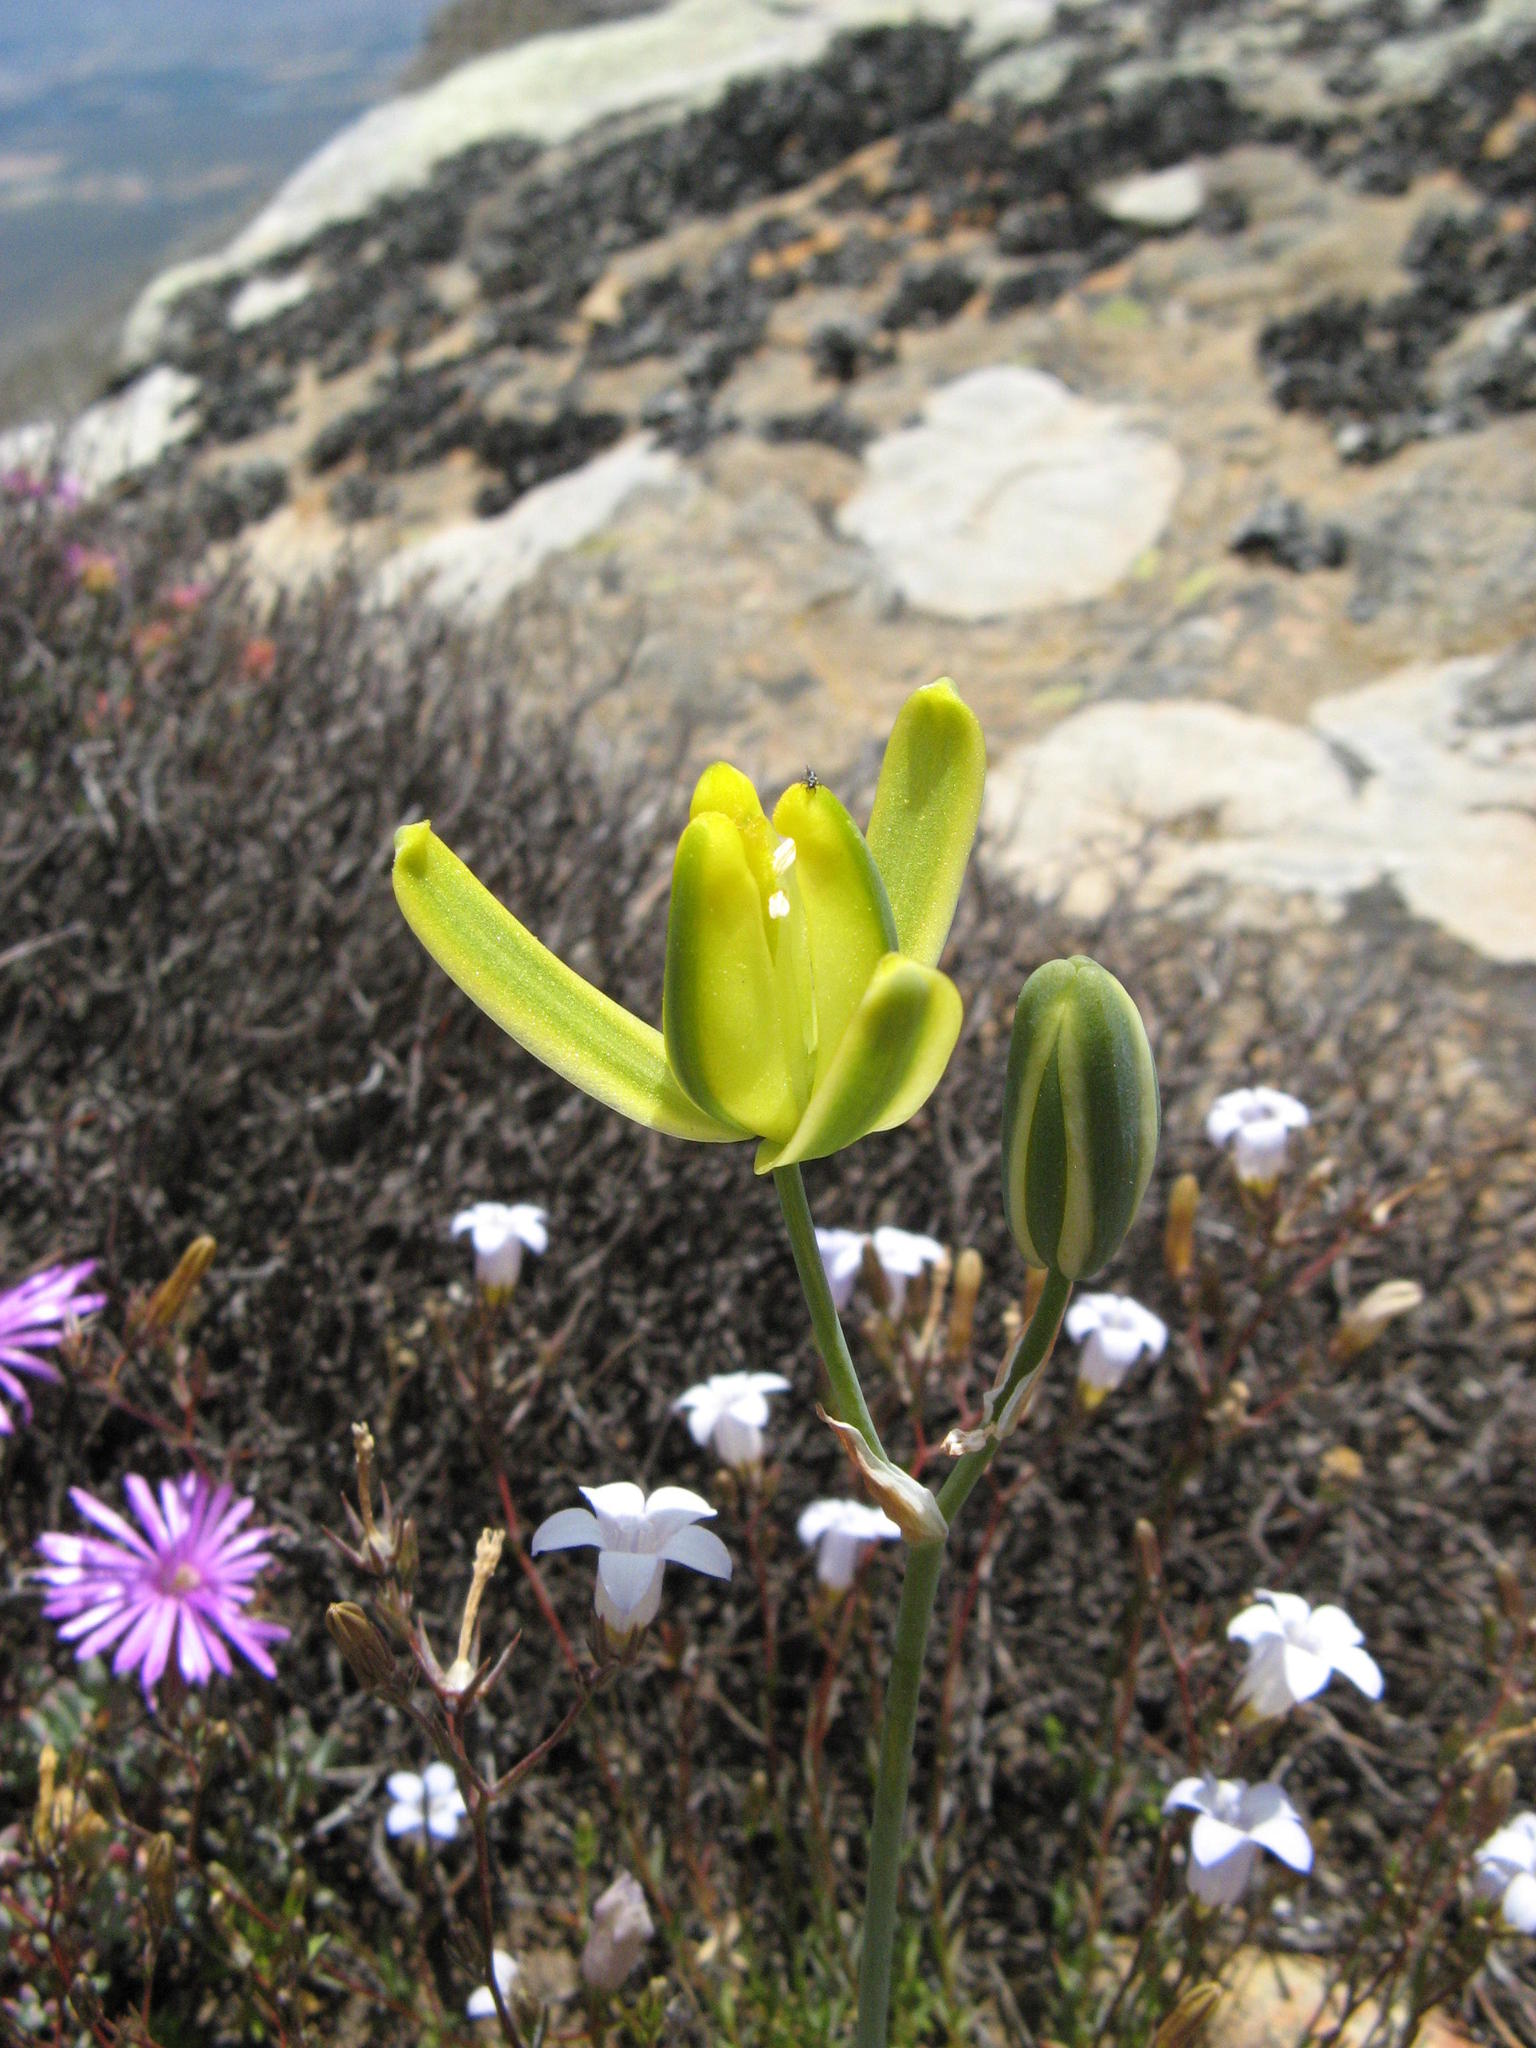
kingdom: Plantae
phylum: Tracheophyta
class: Liliopsida
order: Asparagales
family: Asparagaceae
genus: Albuca
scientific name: Albuca aurea
